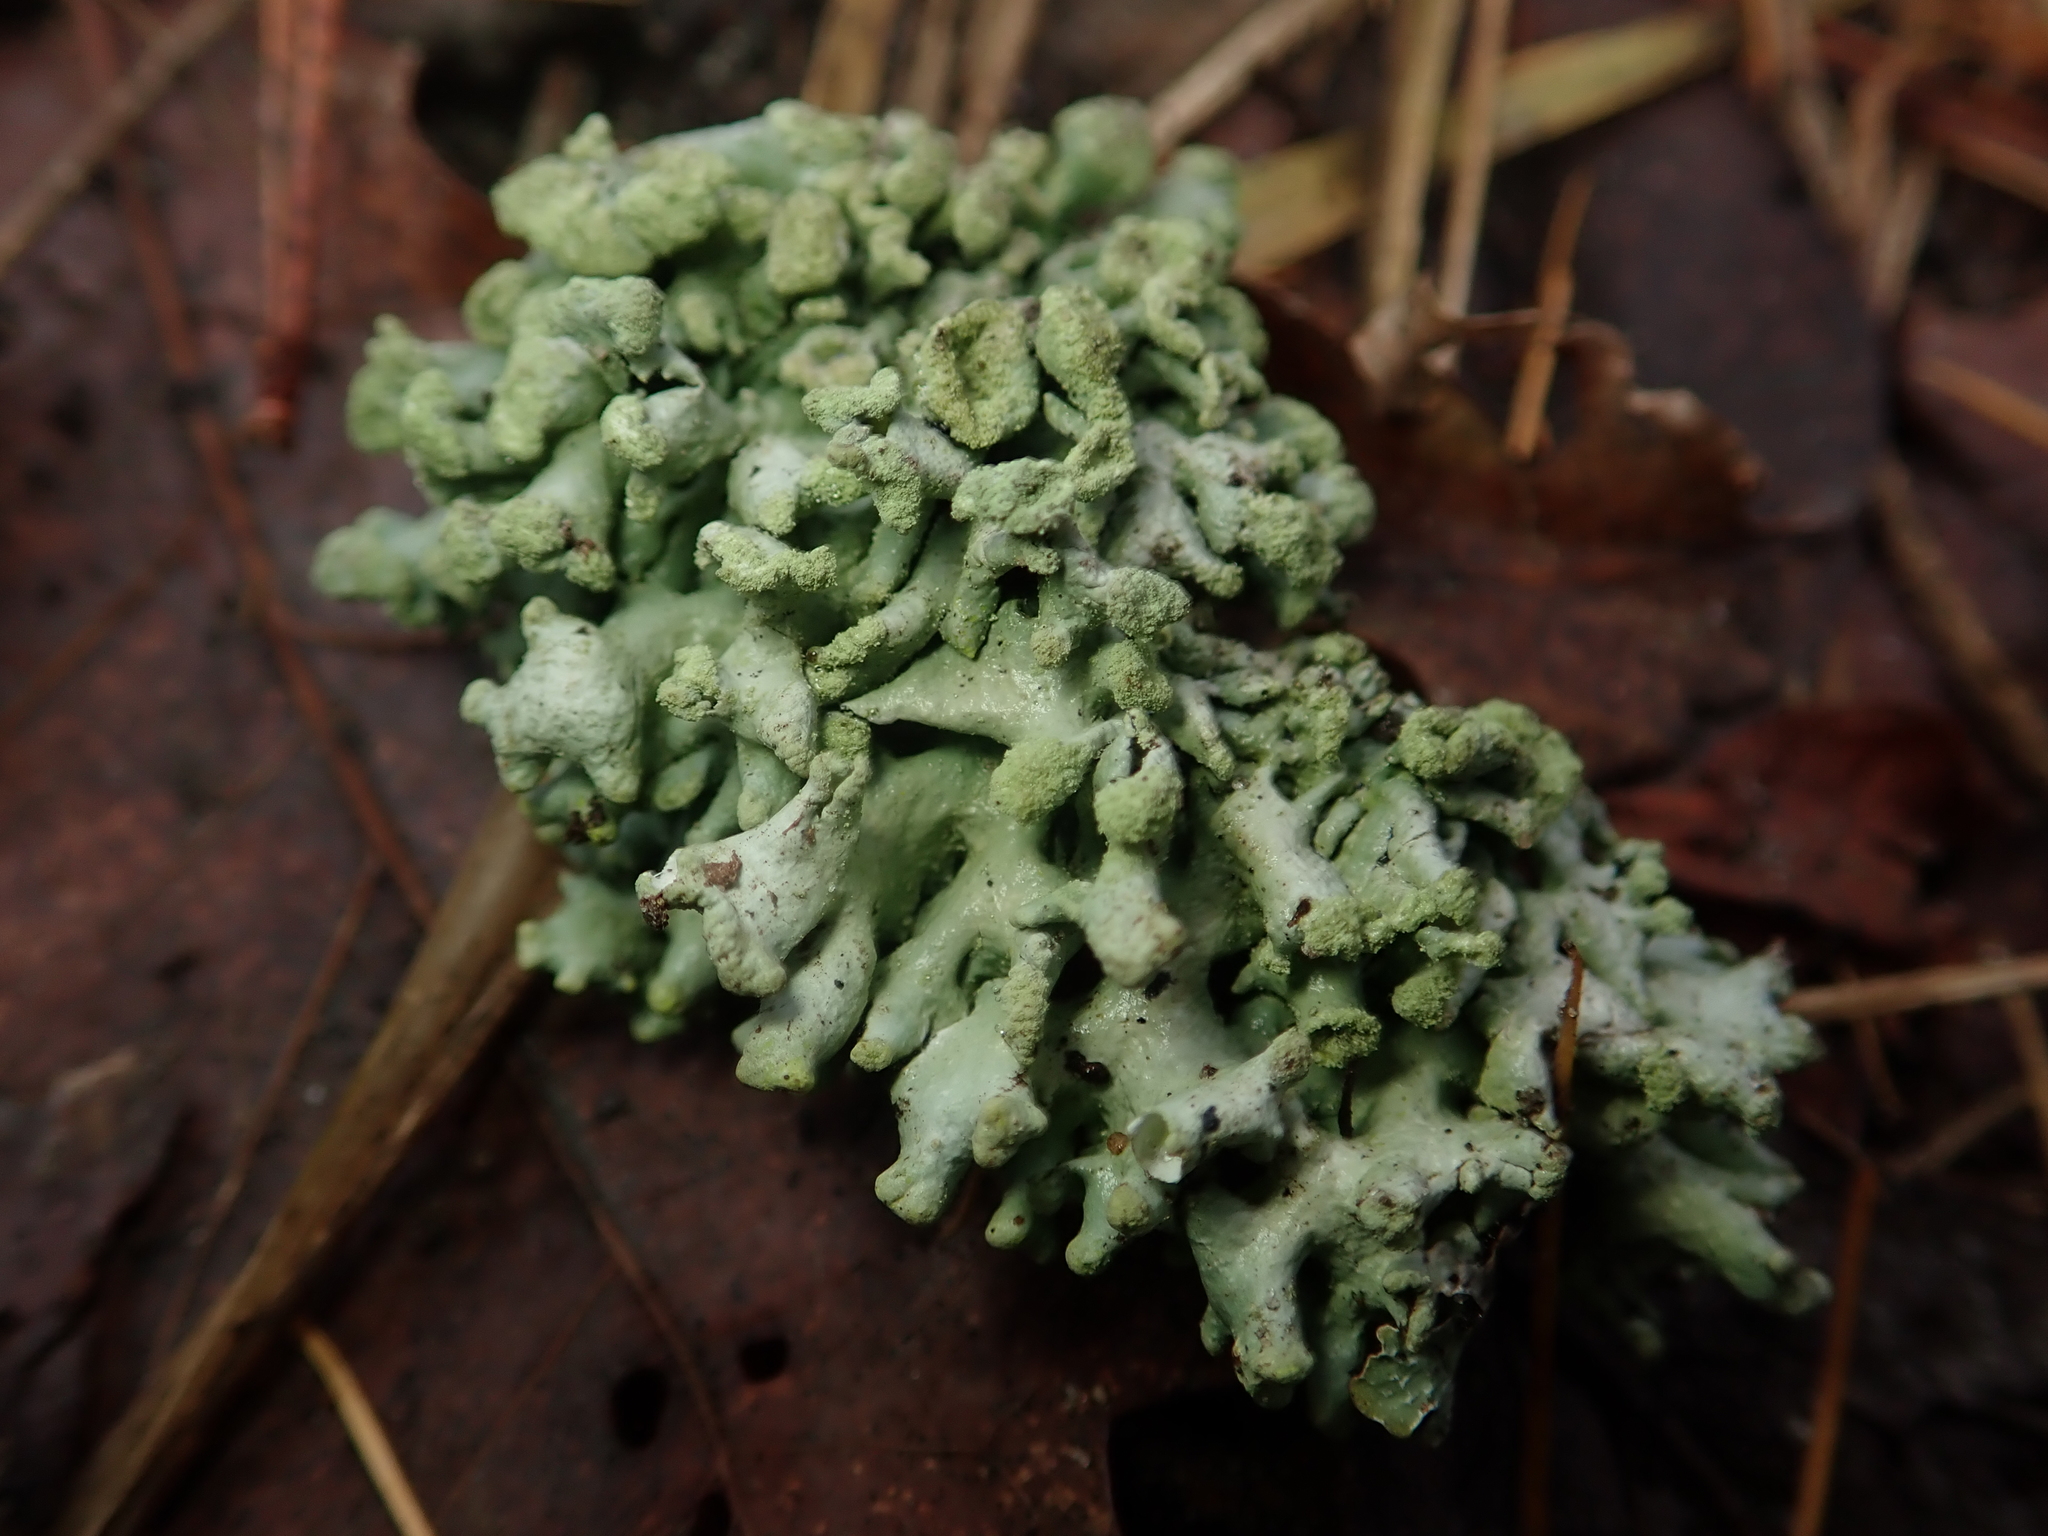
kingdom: Fungi
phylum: Ascomycota
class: Lecanoromycetes
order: Lecanorales
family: Parmeliaceae
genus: Hypogymnia
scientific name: Hypogymnia tubulosa
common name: Powder-headed tube lichen
